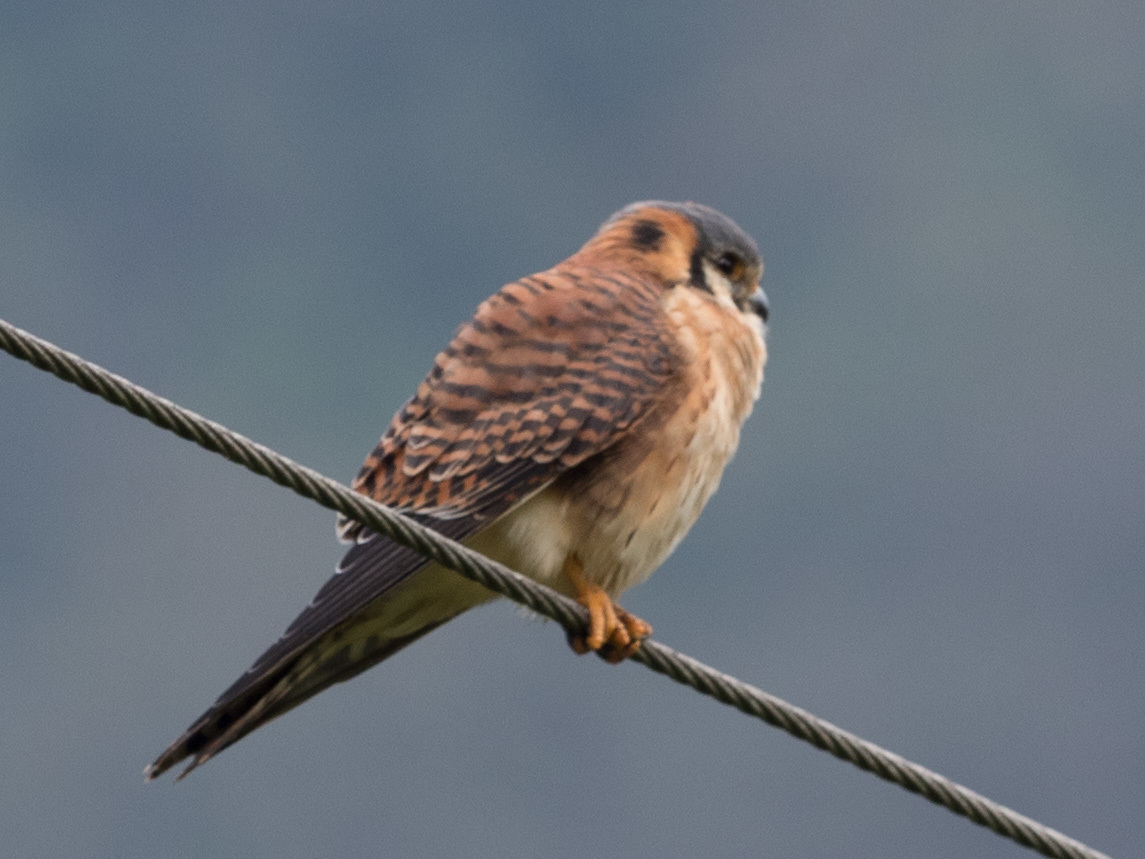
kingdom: Animalia
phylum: Chordata
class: Aves
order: Falconiformes
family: Falconidae
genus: Falco
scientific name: Falco sparverius
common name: American kestrel
